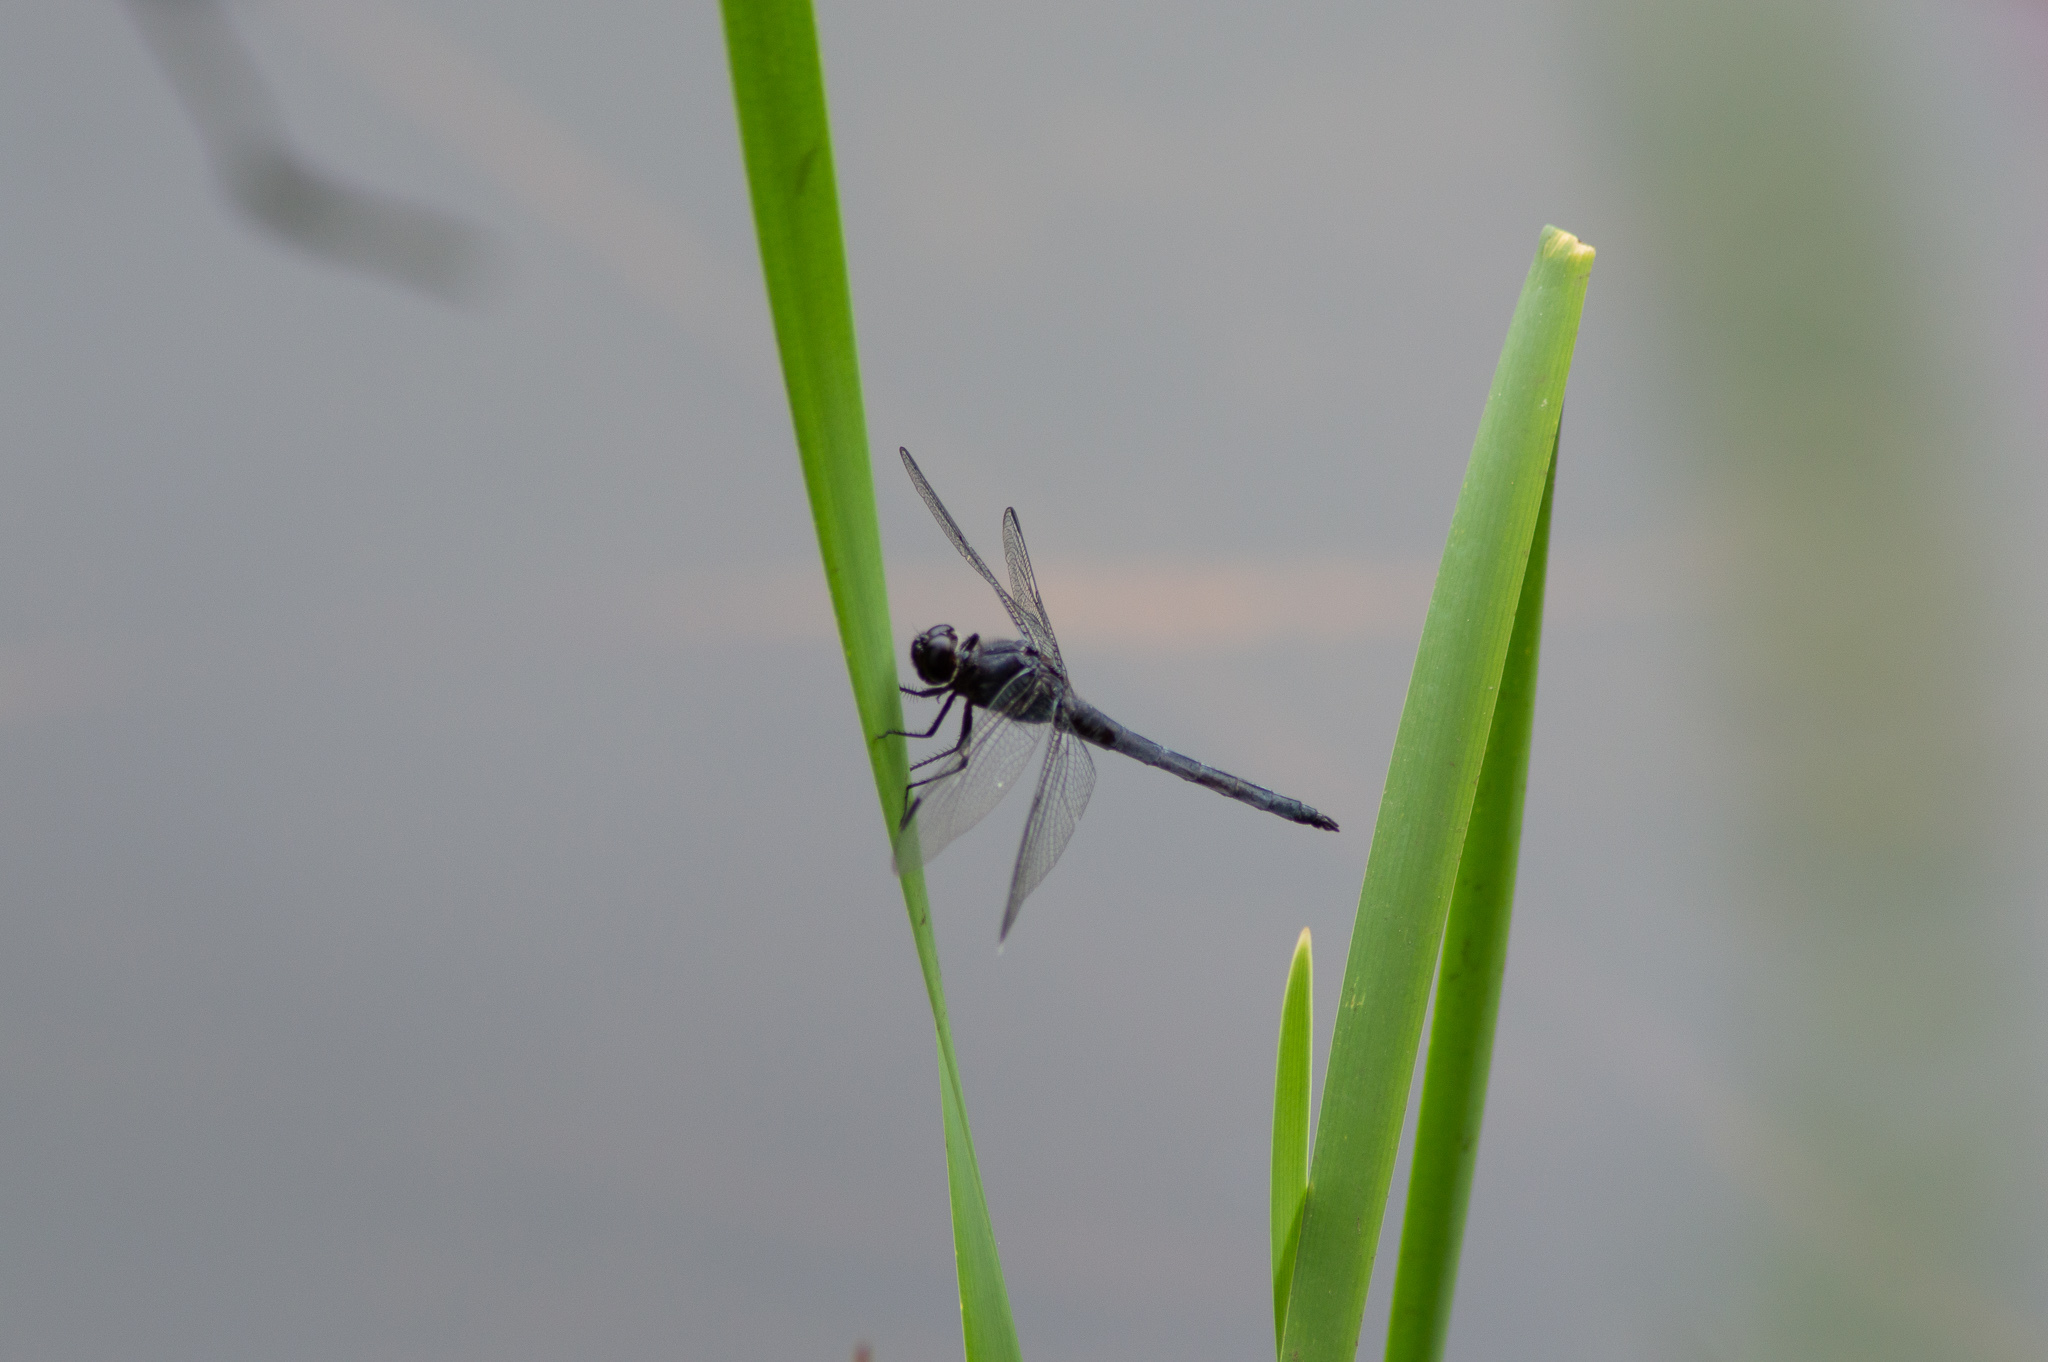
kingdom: Animalia
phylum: Arthropoda
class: Insecta
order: Odonata
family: Libellulidae
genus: Libellula
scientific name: Libellula incesta
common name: Slaty skimmer
